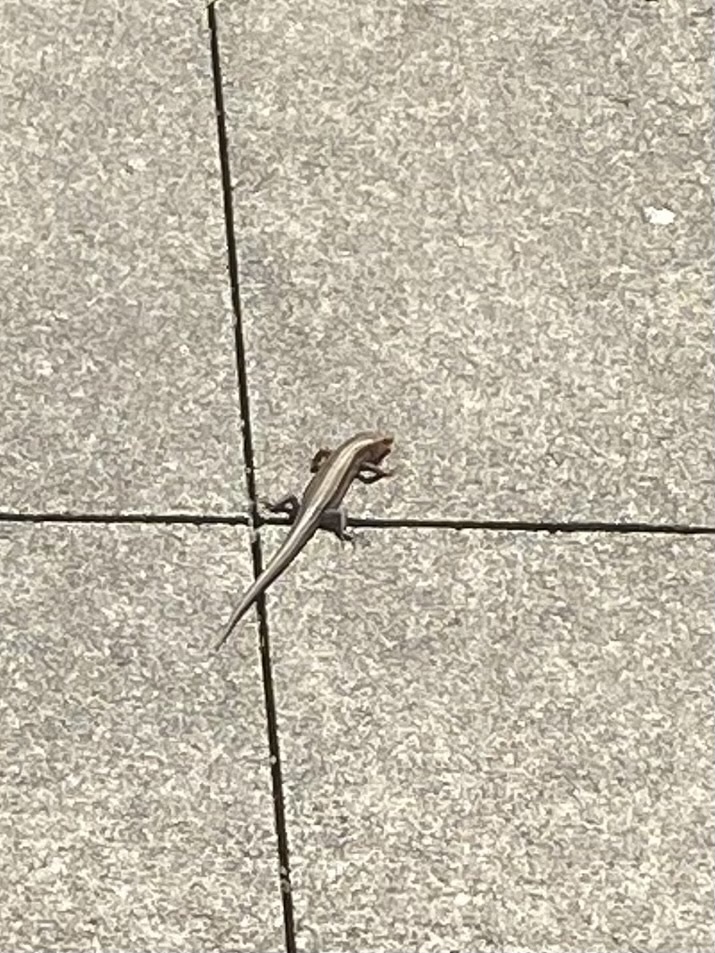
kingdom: Animalia
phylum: Chordata
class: Squamata
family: Scincidae
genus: Plestiodon
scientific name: Plestiodon fasciatus
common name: Five-lined skink
